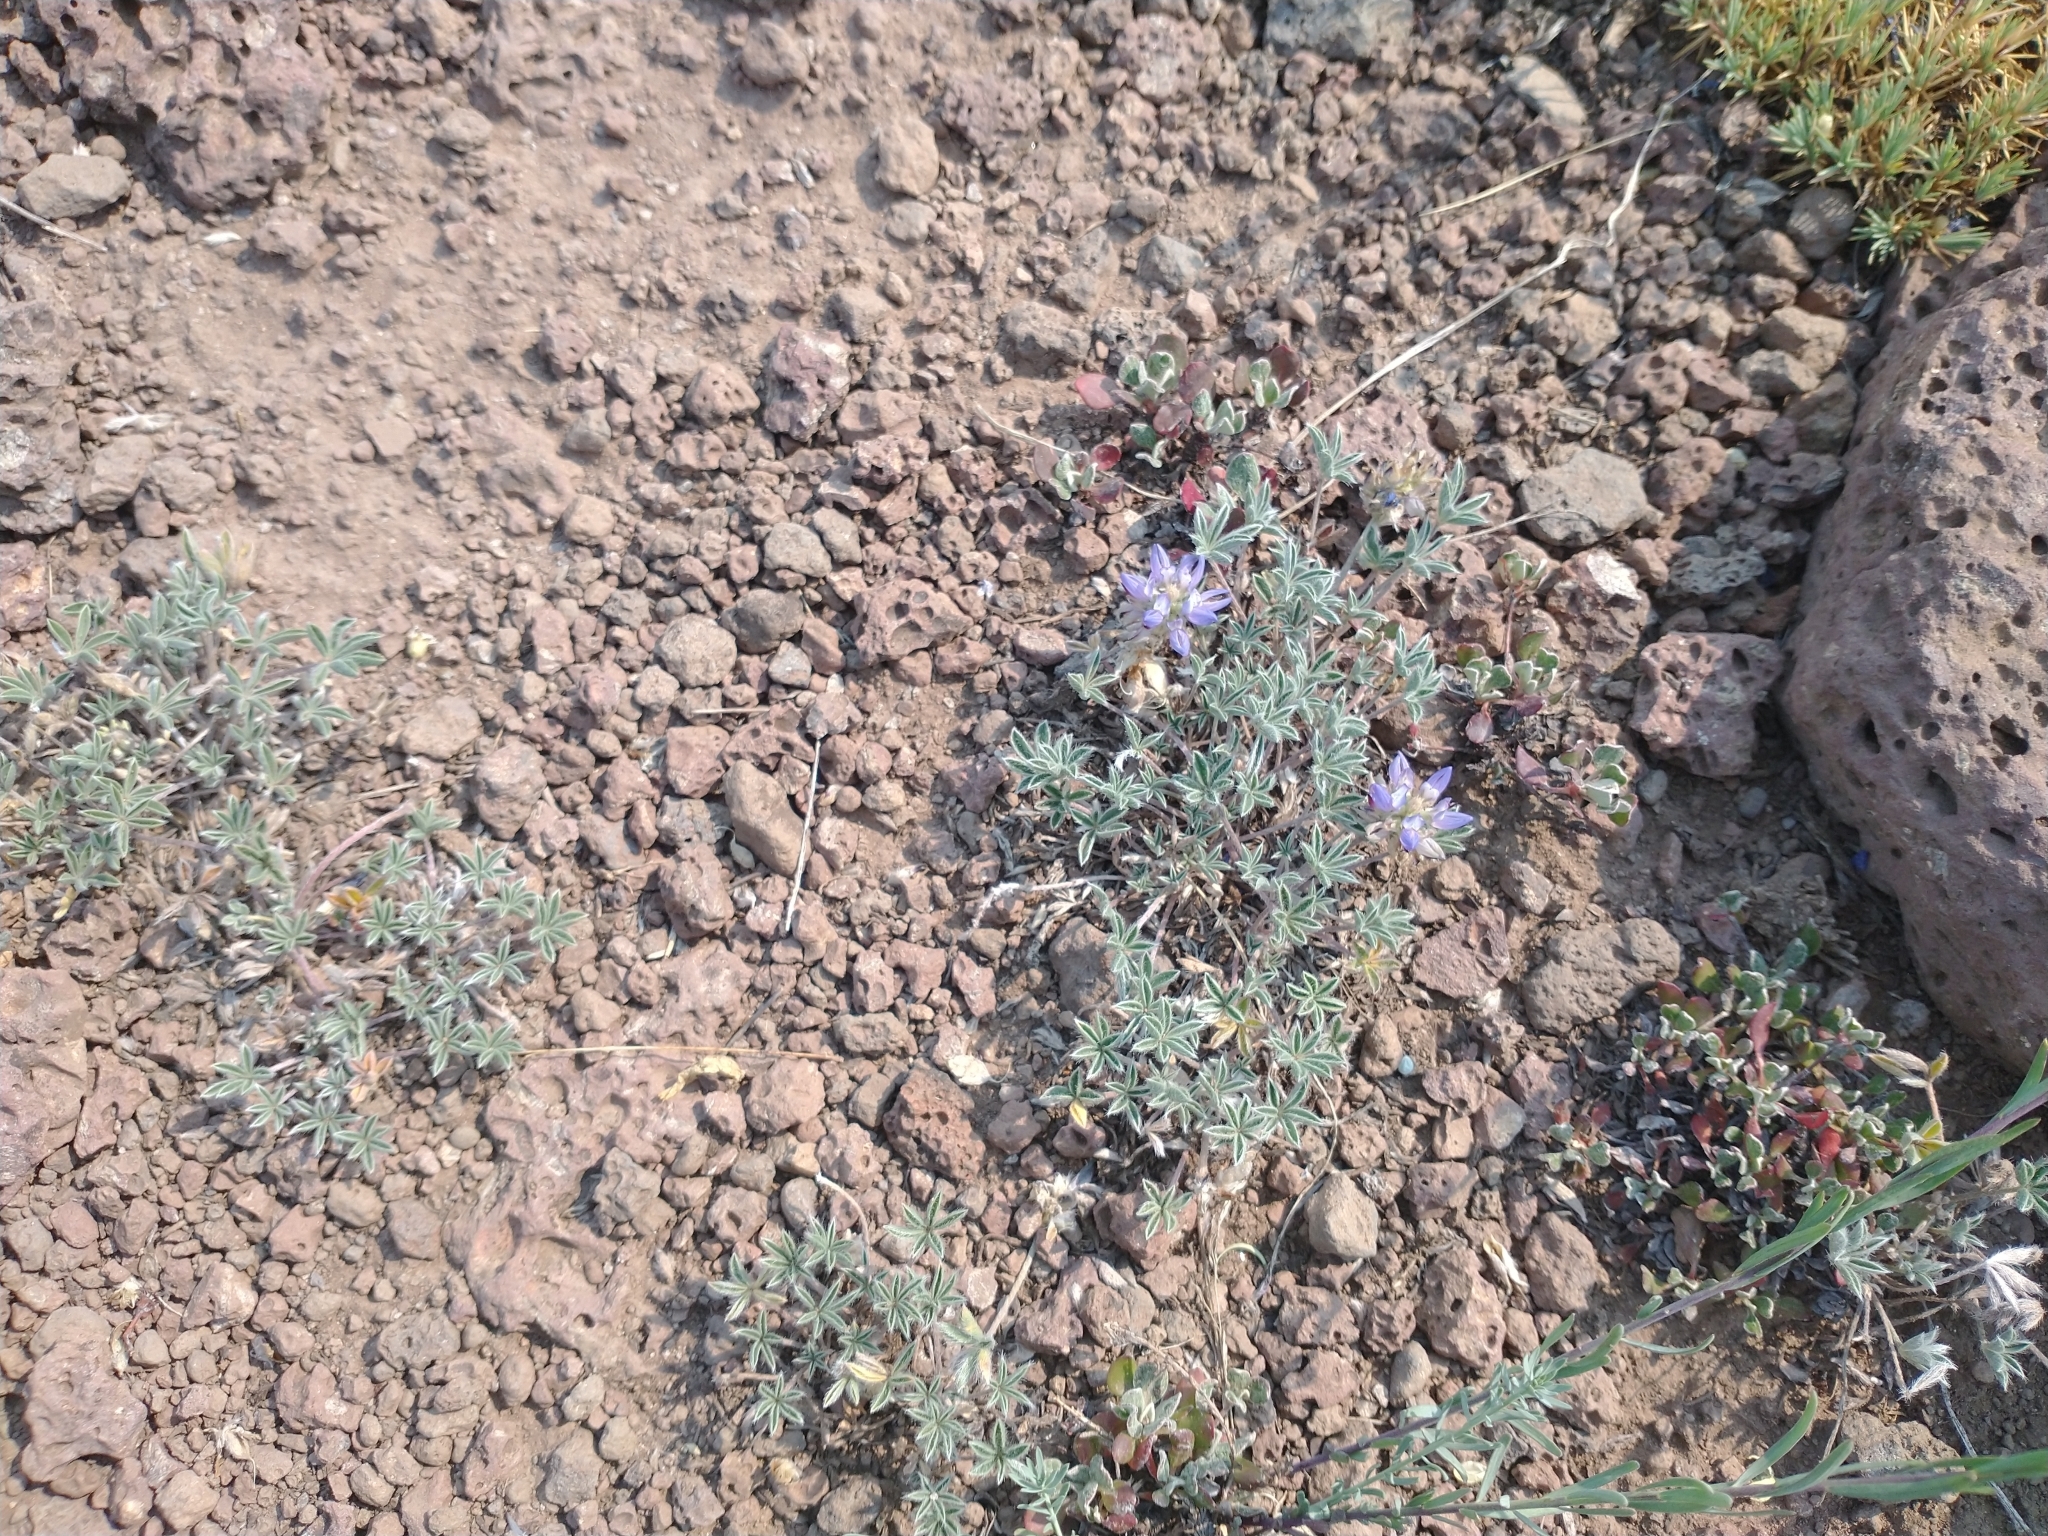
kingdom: Plantae
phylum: Tracheophyta
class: Magnoliopsida
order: Fabales
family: Fabaceae
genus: Lupinus
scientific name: Lupinus lepidus
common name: Prairie lupine
